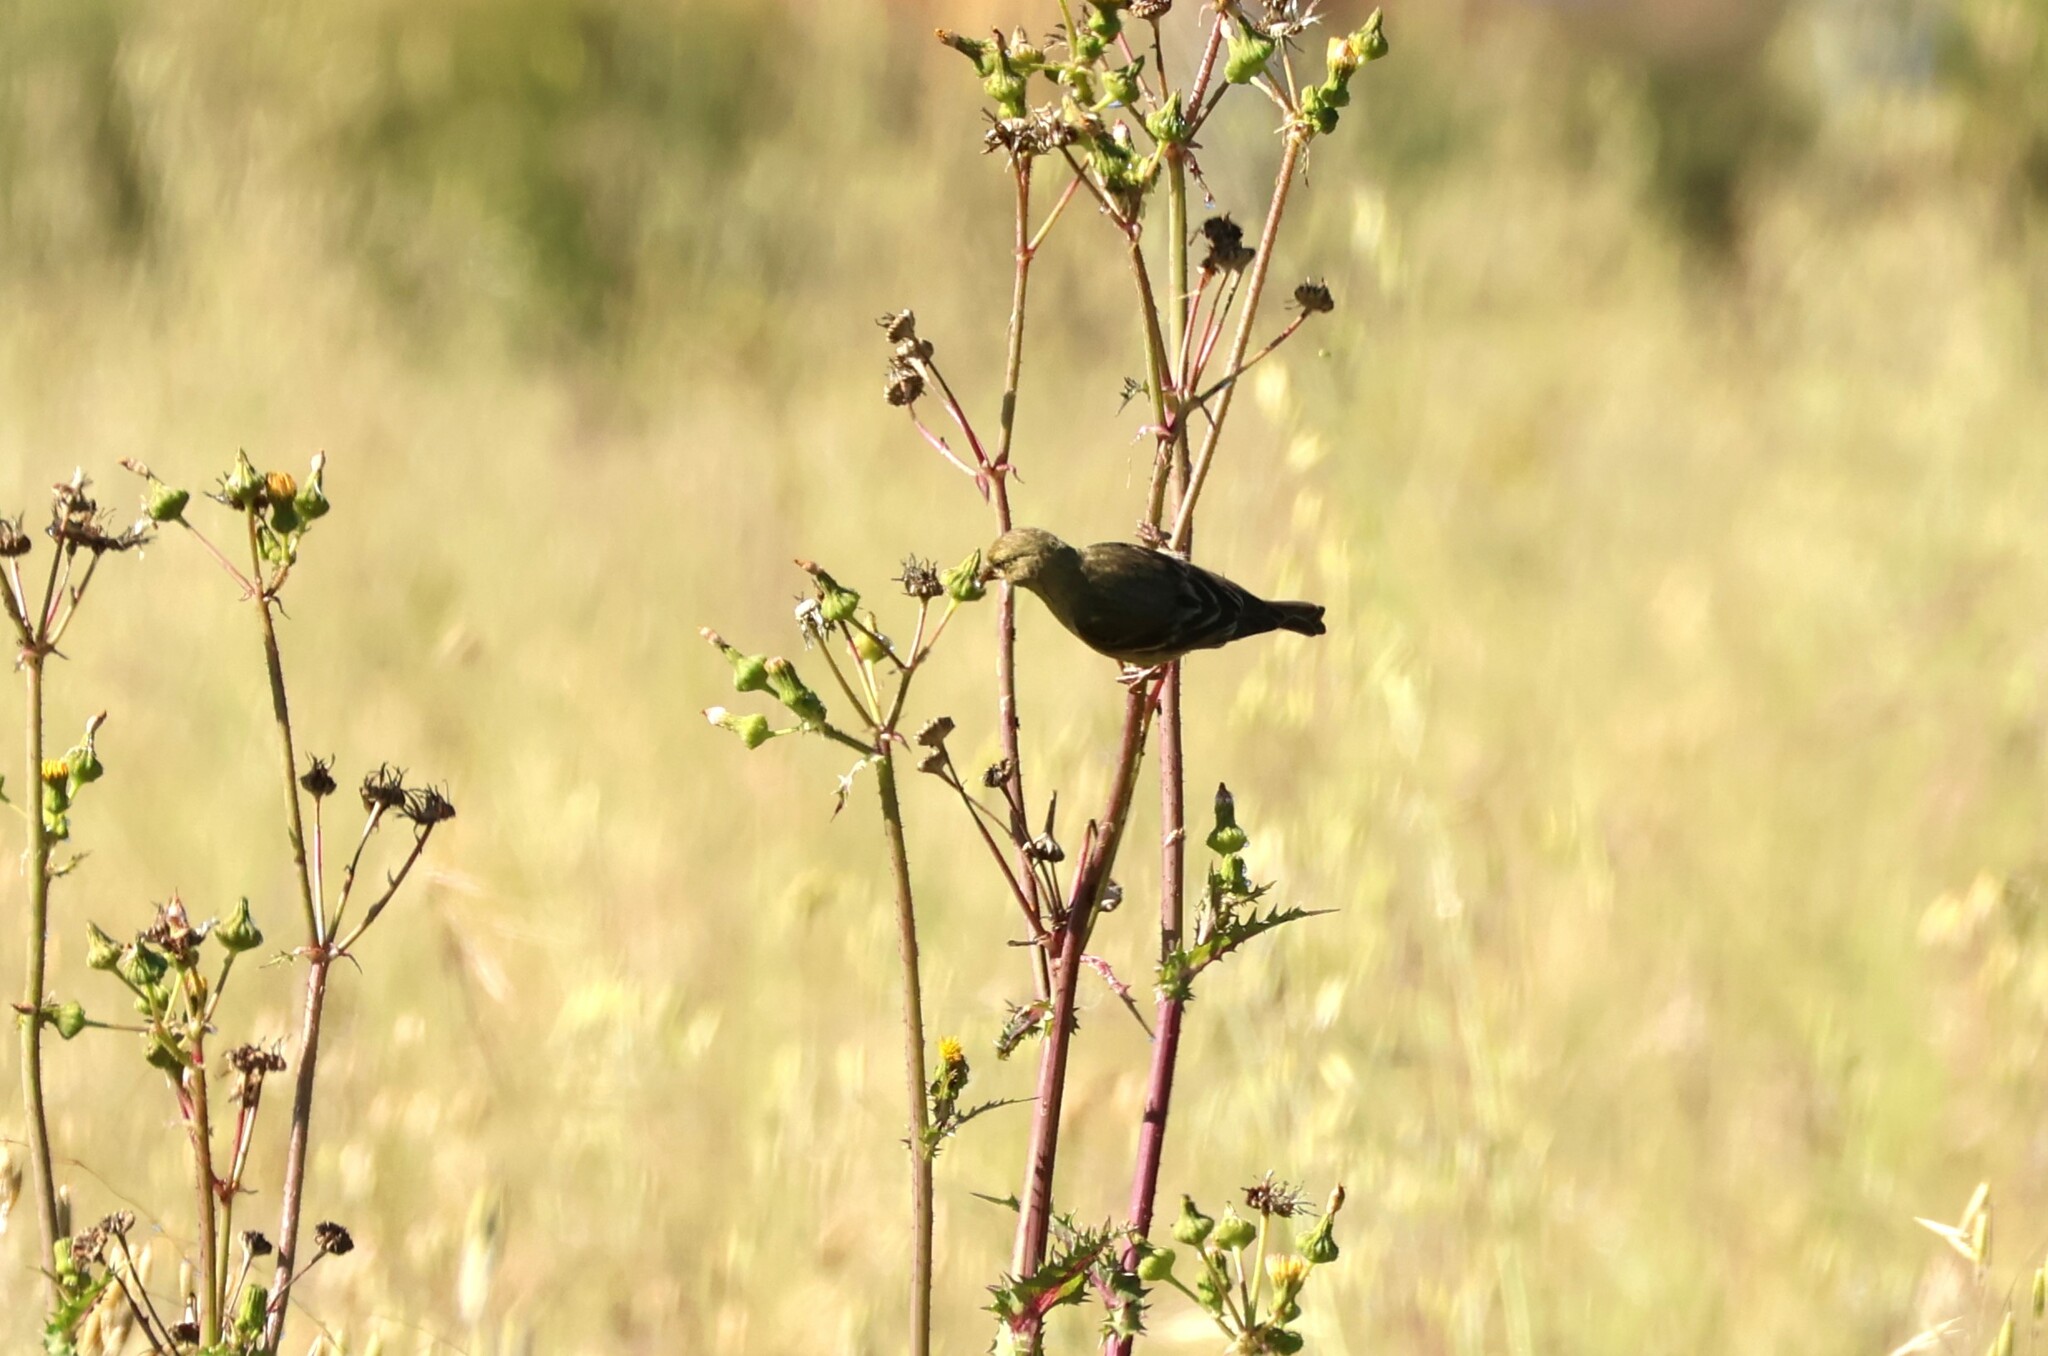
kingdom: Animalia
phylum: Chordata
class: Aves
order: Passeriformes
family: Fringillidae
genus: Spinus
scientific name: Spinus psaltria
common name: Lesser goldfinch
